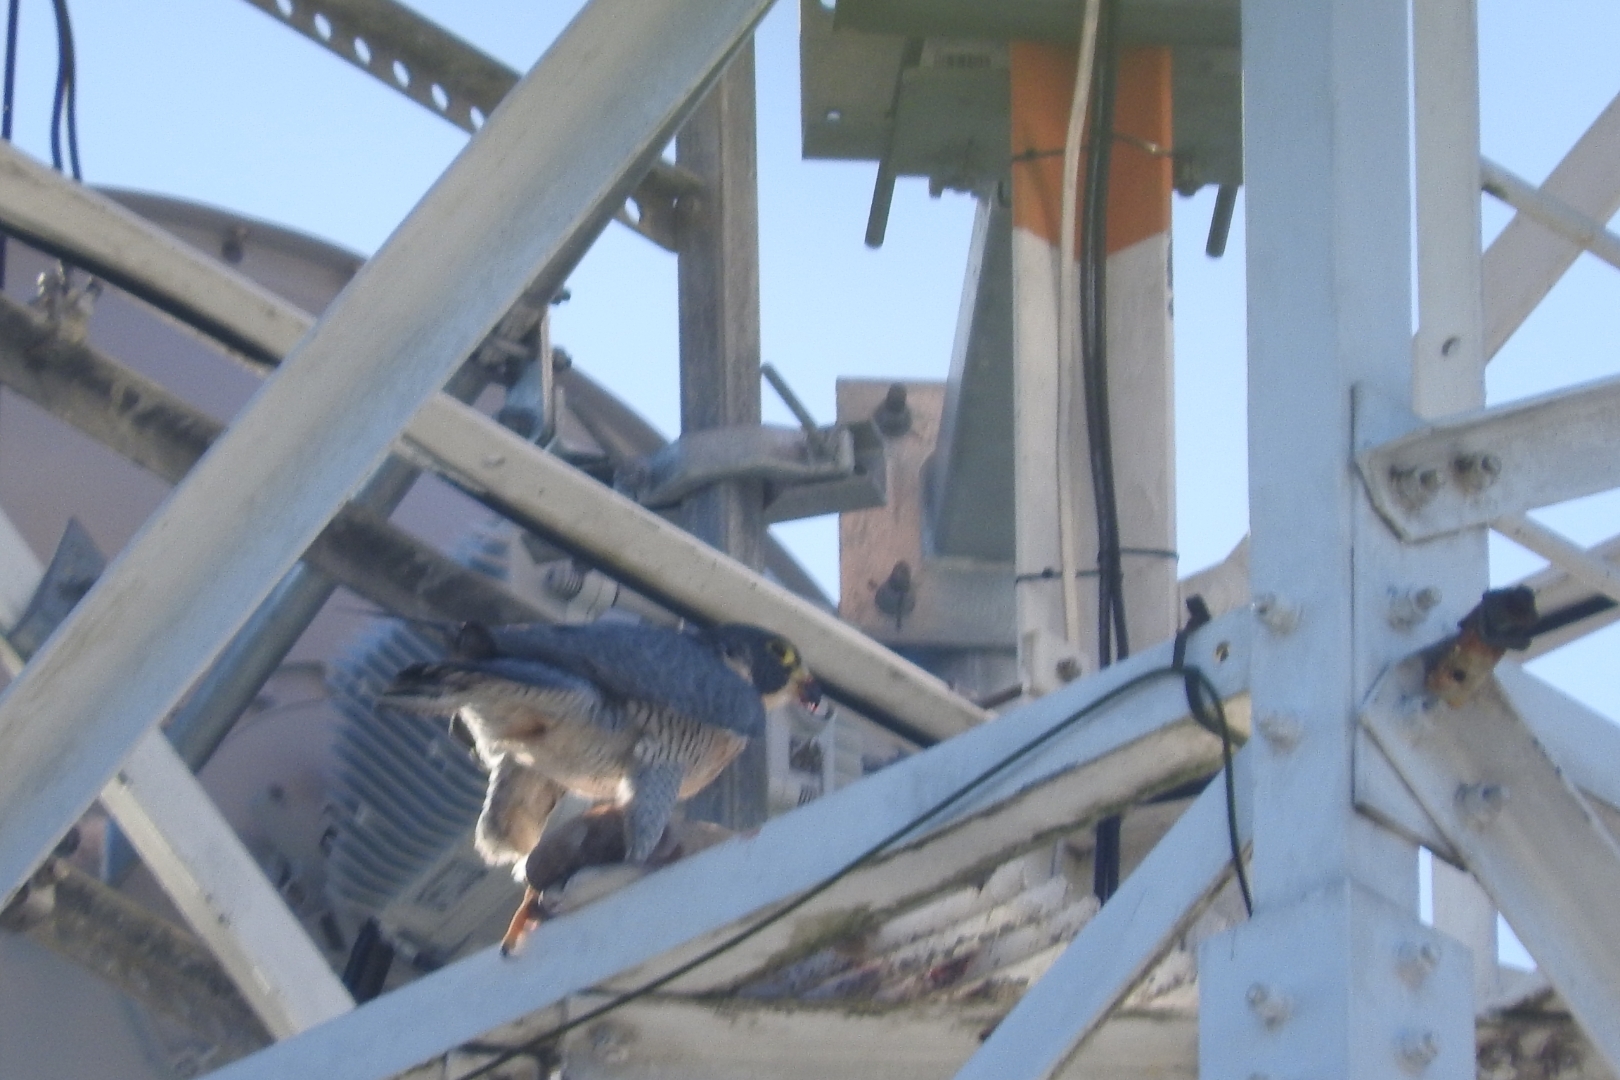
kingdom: Animalia
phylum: Chordata
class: Aves
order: Falconiformes
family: Falconidae
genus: Falco
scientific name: Falco peregrinus
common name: Peregrine falcon
